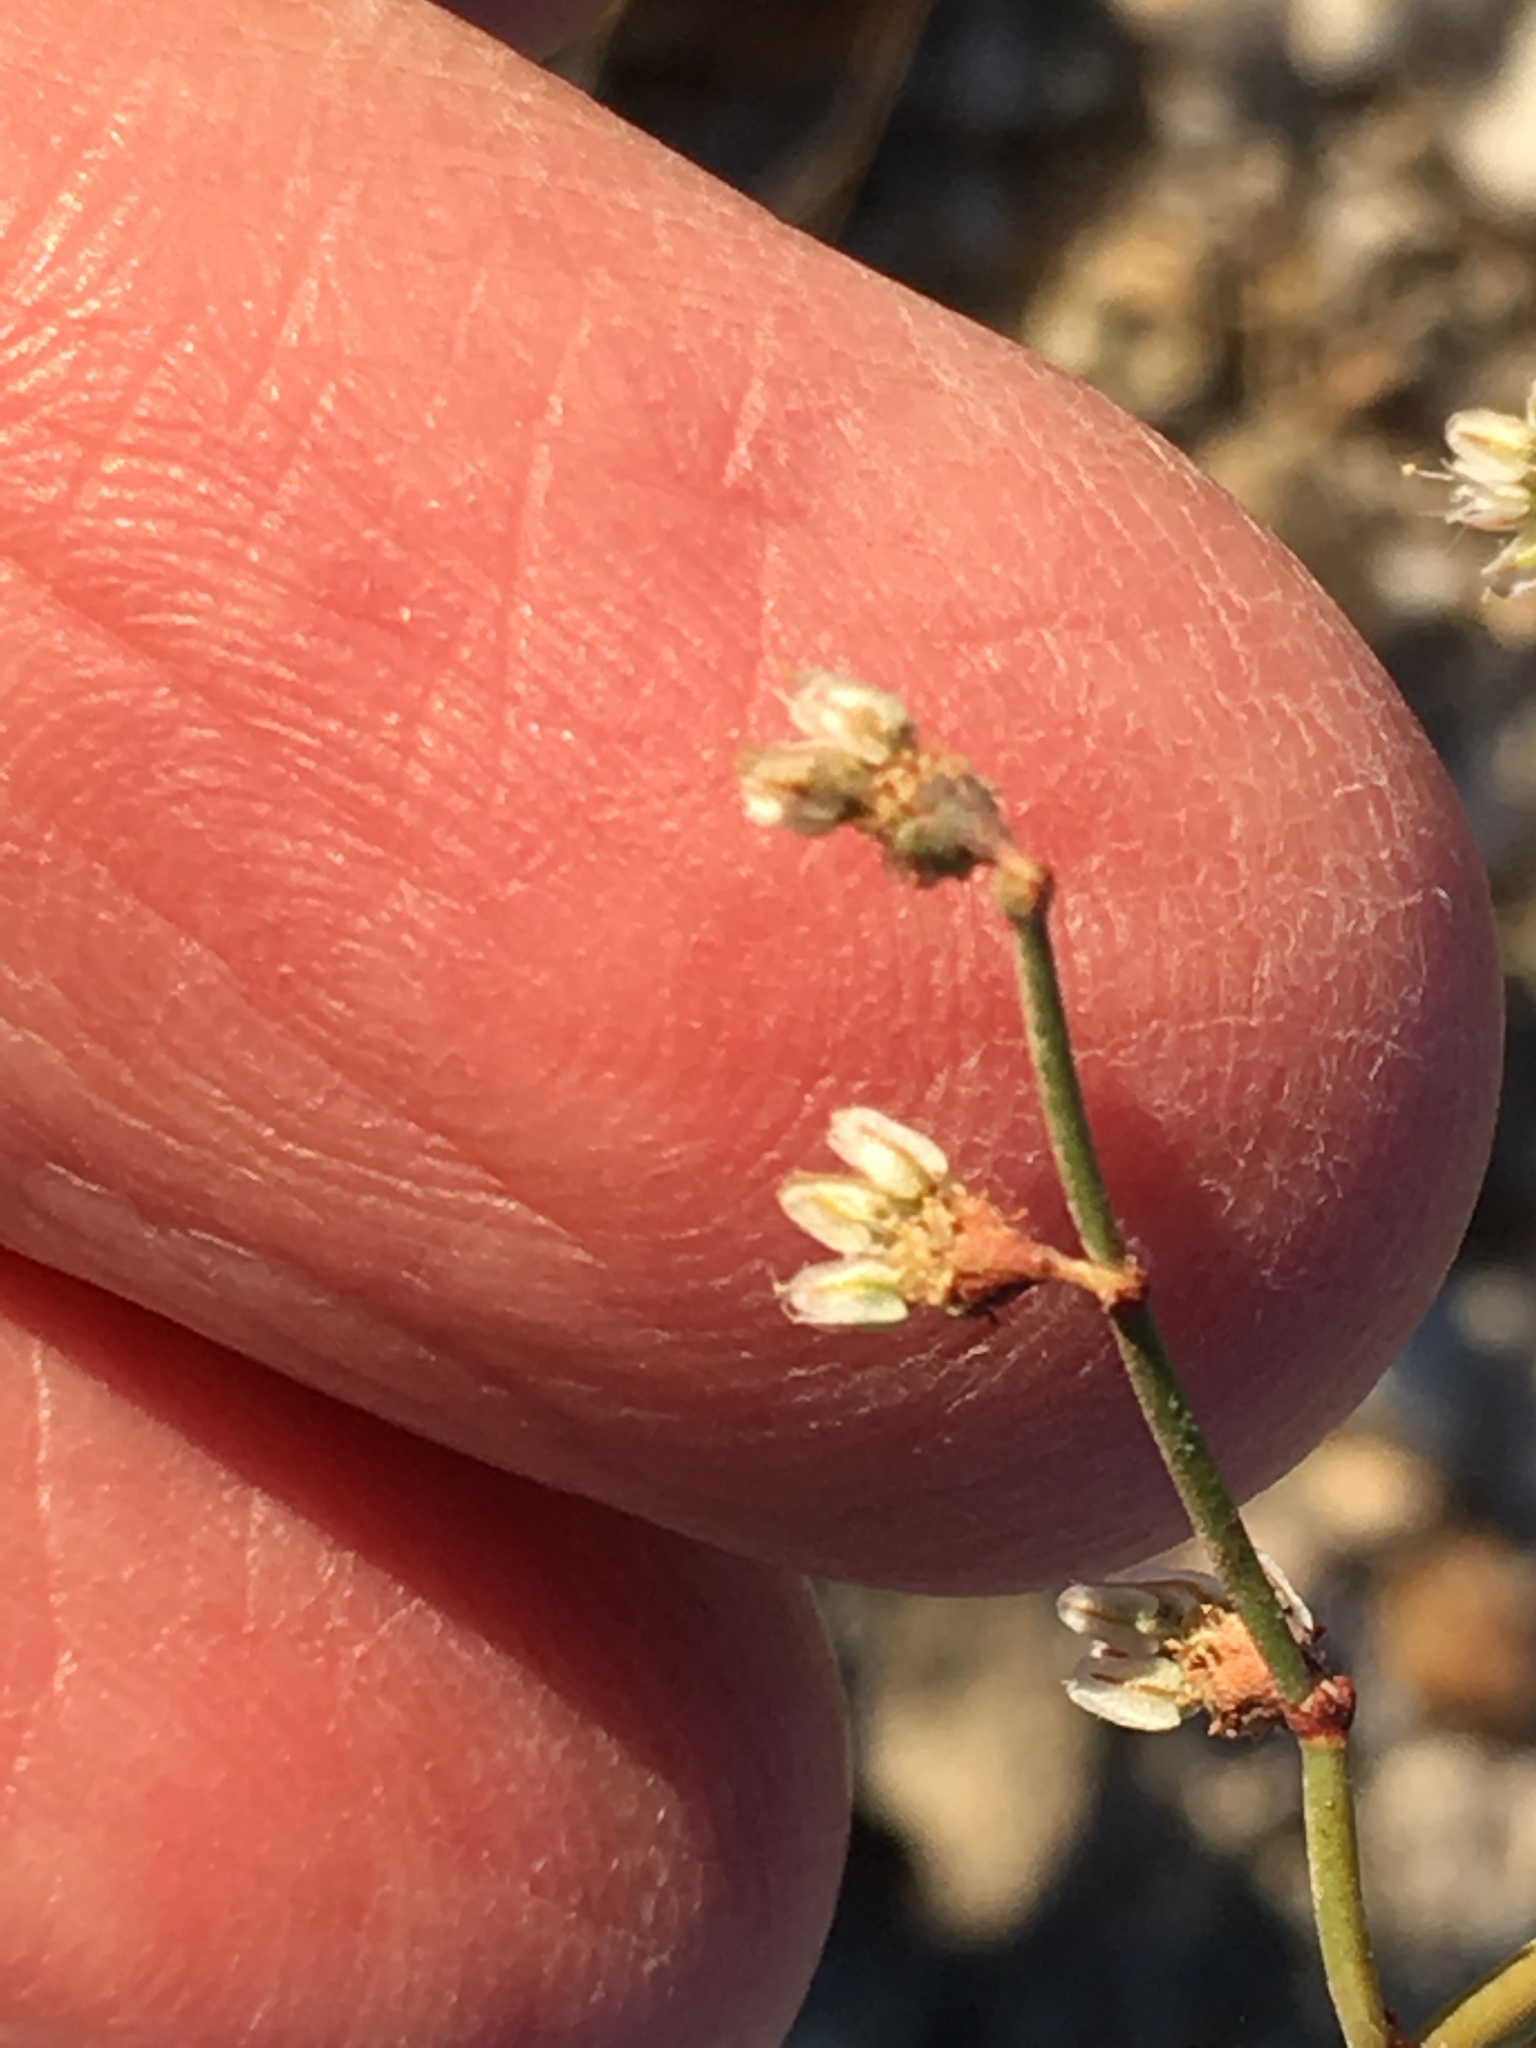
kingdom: Plantae
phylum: Tracheophyta
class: Magnoliopsida
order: Caryophyllales
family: Polygonaceae
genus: Eriogonum
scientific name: Eriogonum deflexum
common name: Skeleton-weed
